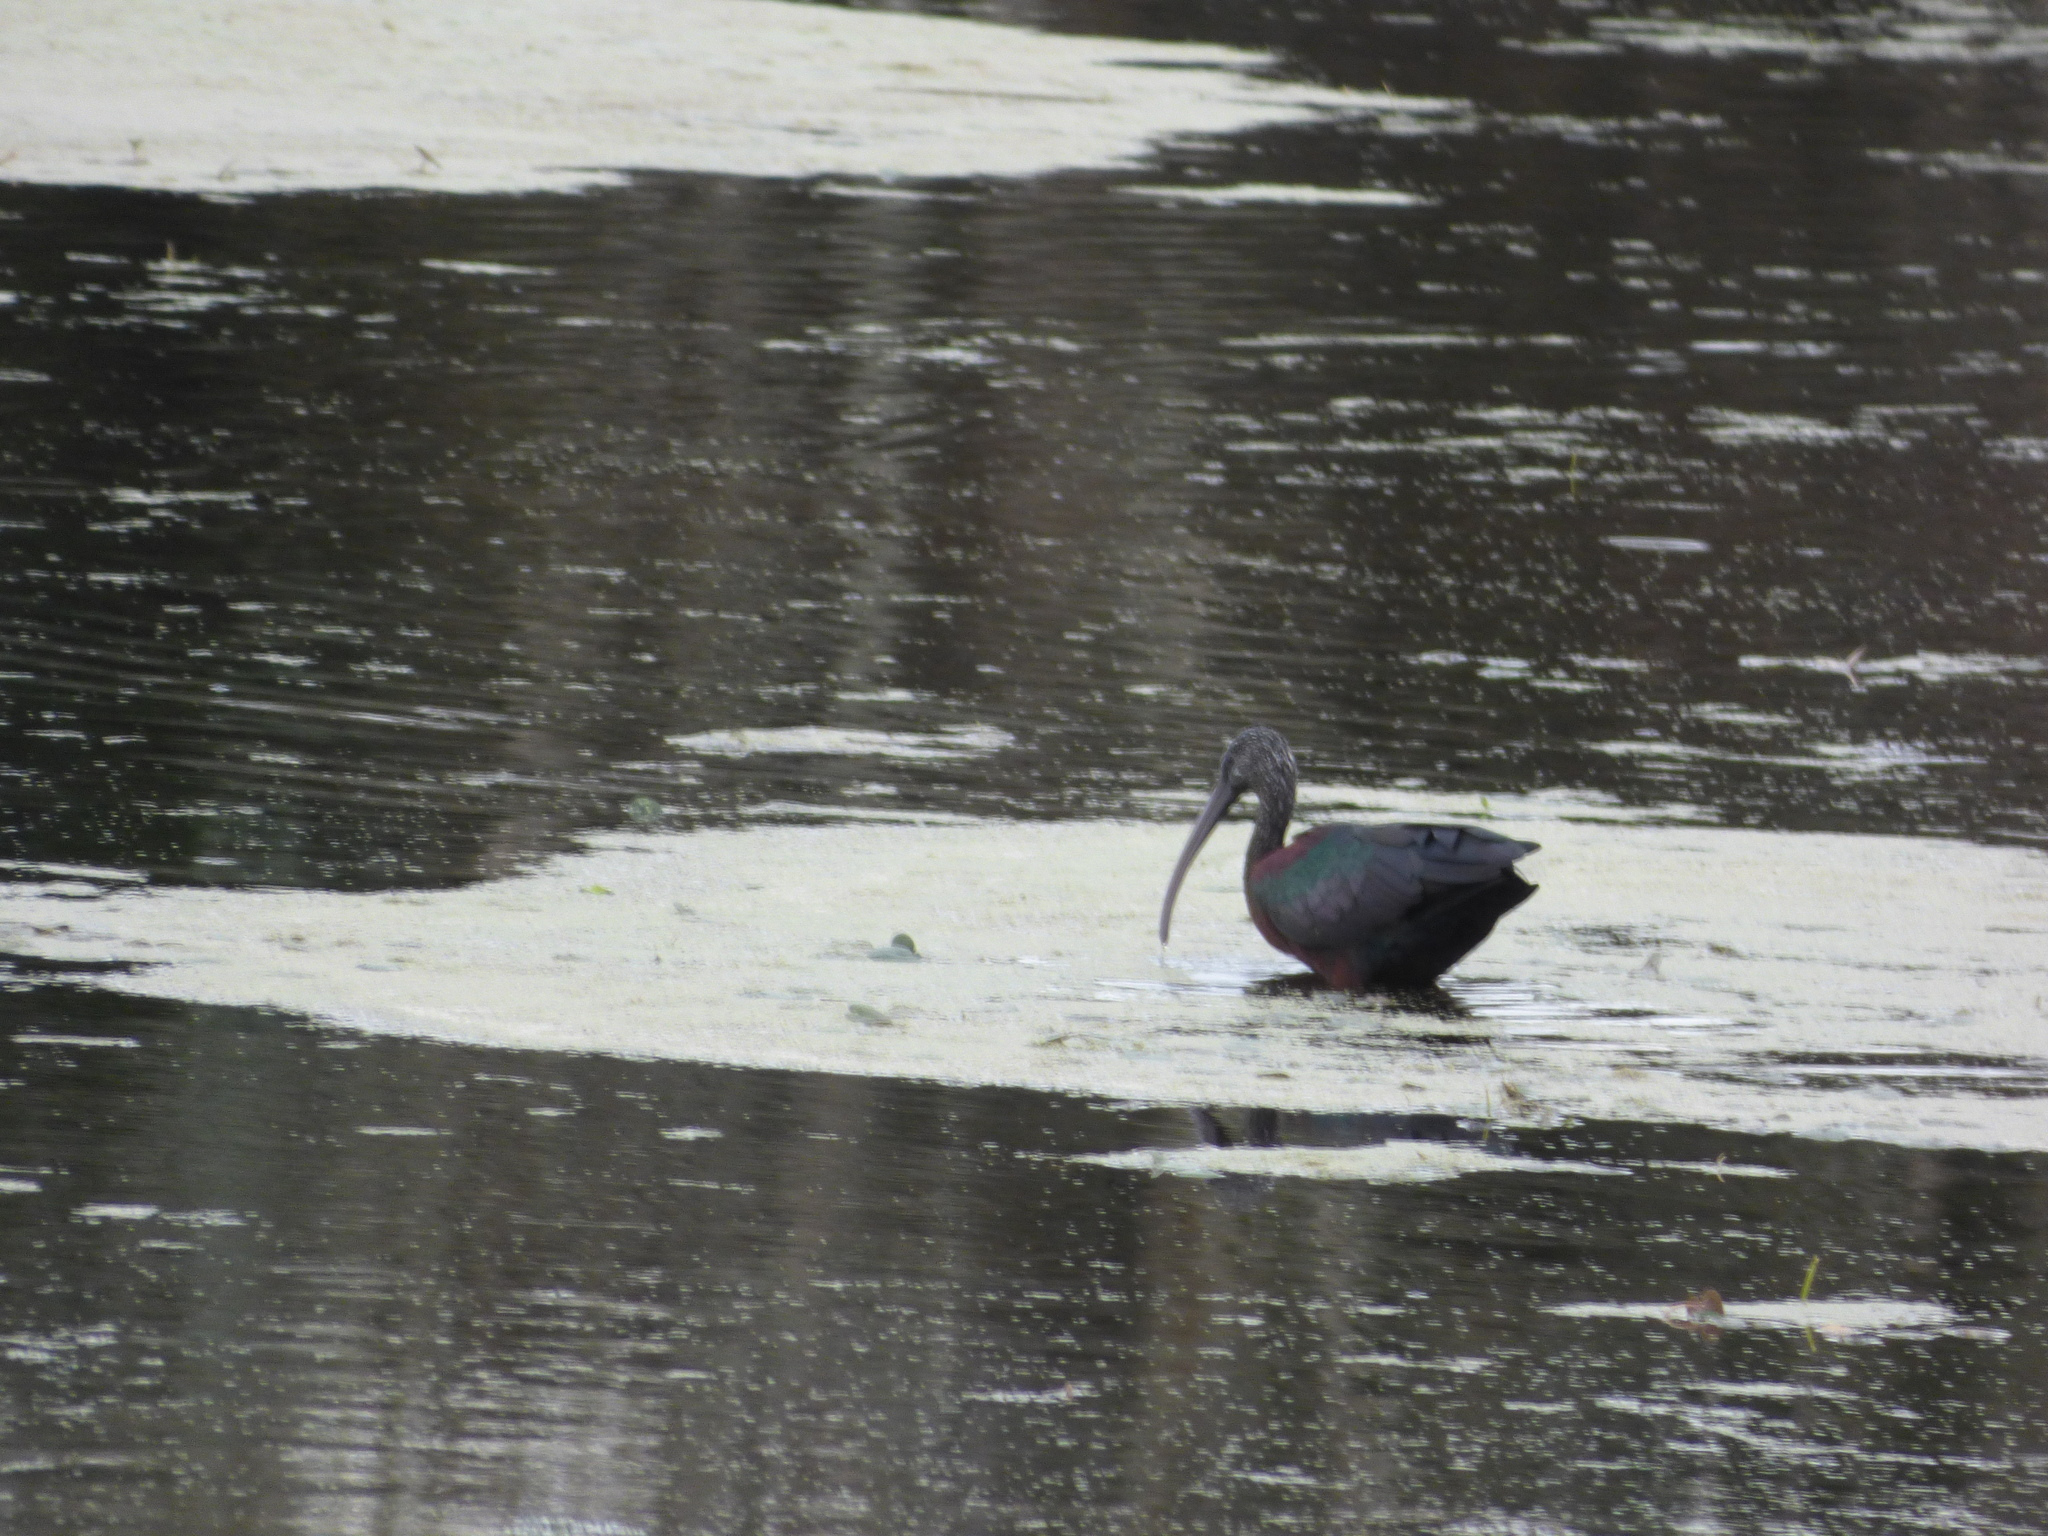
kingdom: Animalia
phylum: Chordata
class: Aves
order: Pelecaniformes
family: Threskiornithidae
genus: Plegadis
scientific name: Plegadis falcinellus
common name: Glossy ibis
